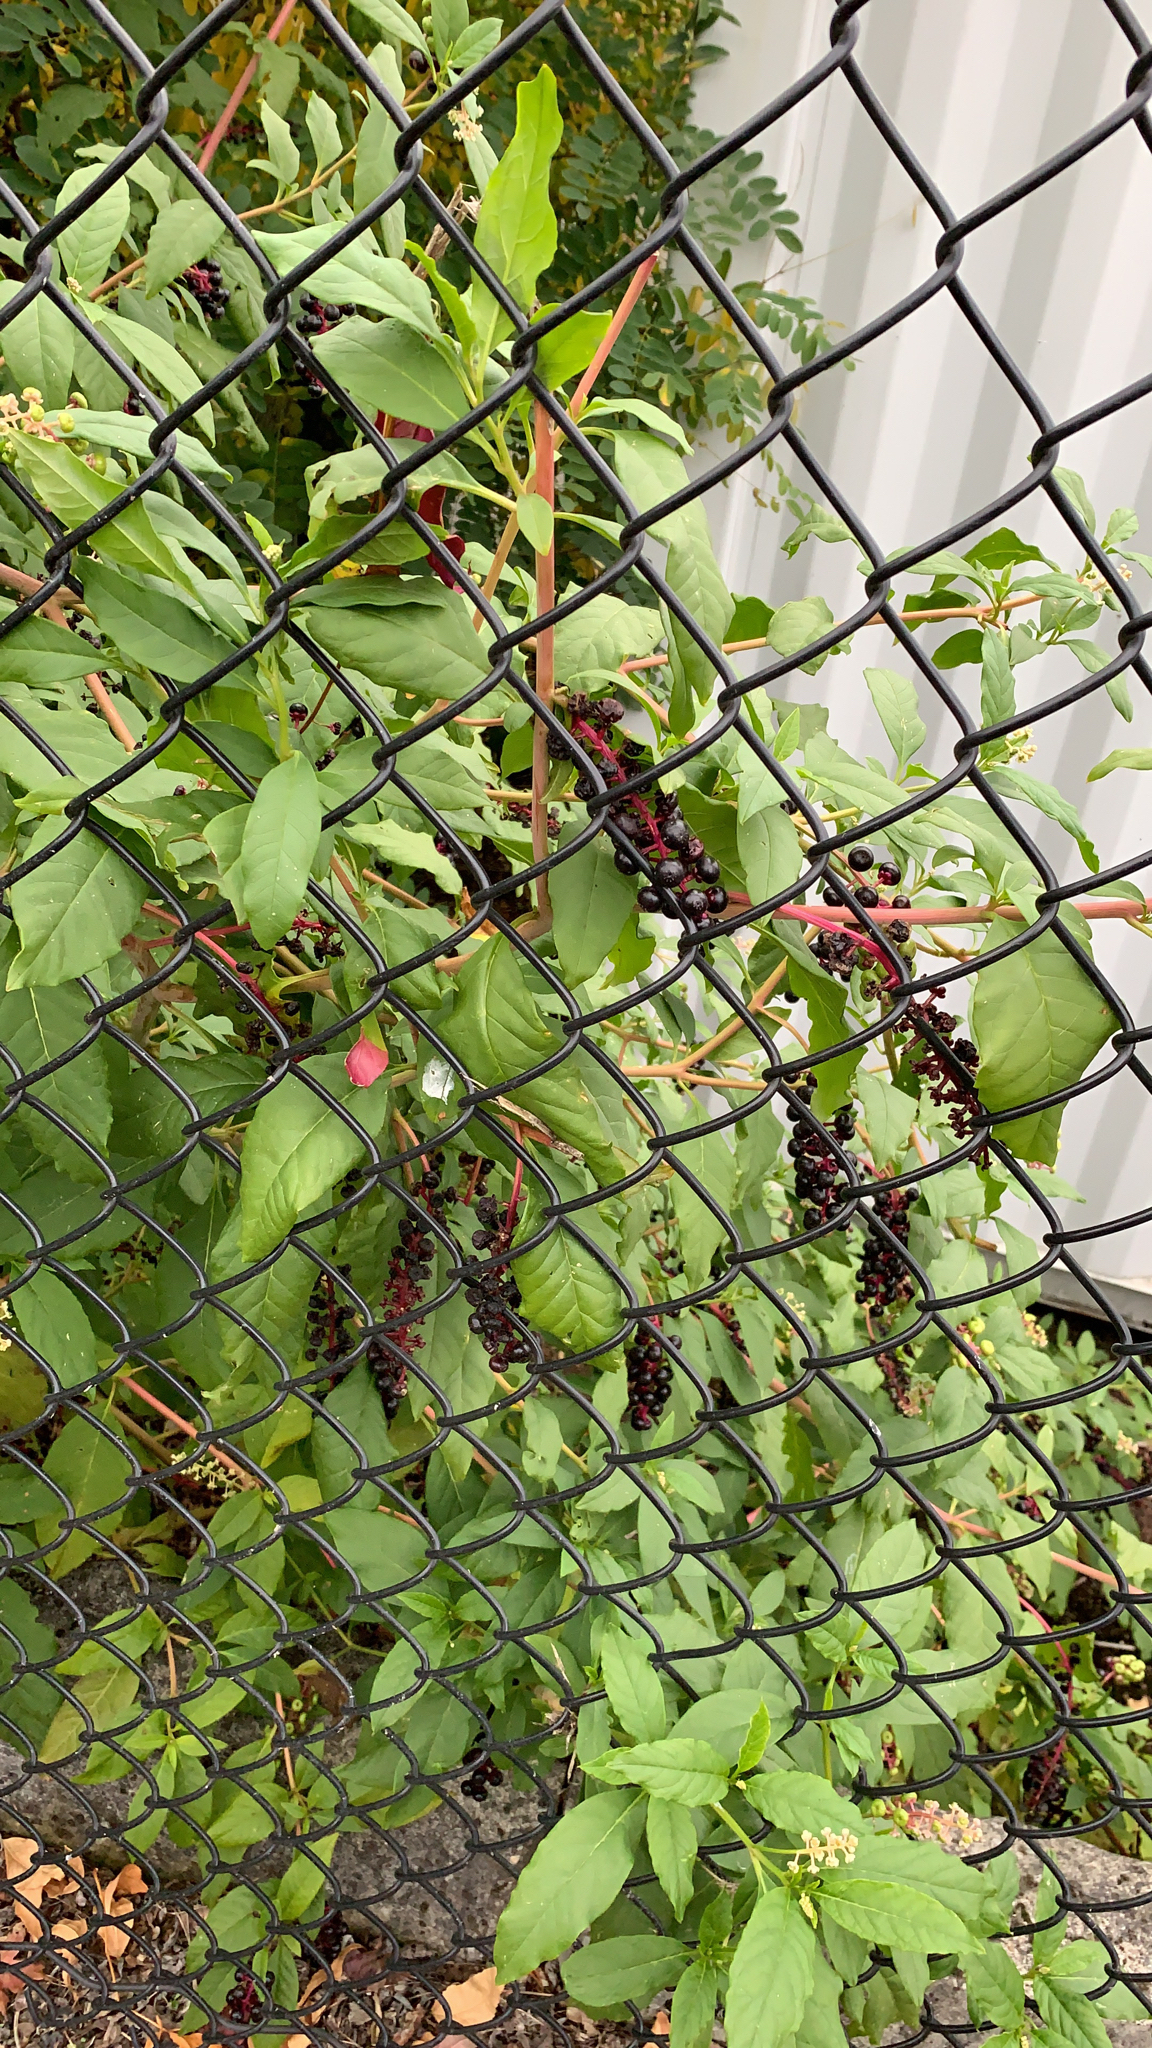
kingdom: Plantae
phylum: Tracheophyta
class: Magnoliopsida
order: Caryophyllales
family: Phytolaccaceae
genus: Phytolacca
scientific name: Phytolacca americana
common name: American pokeweed
